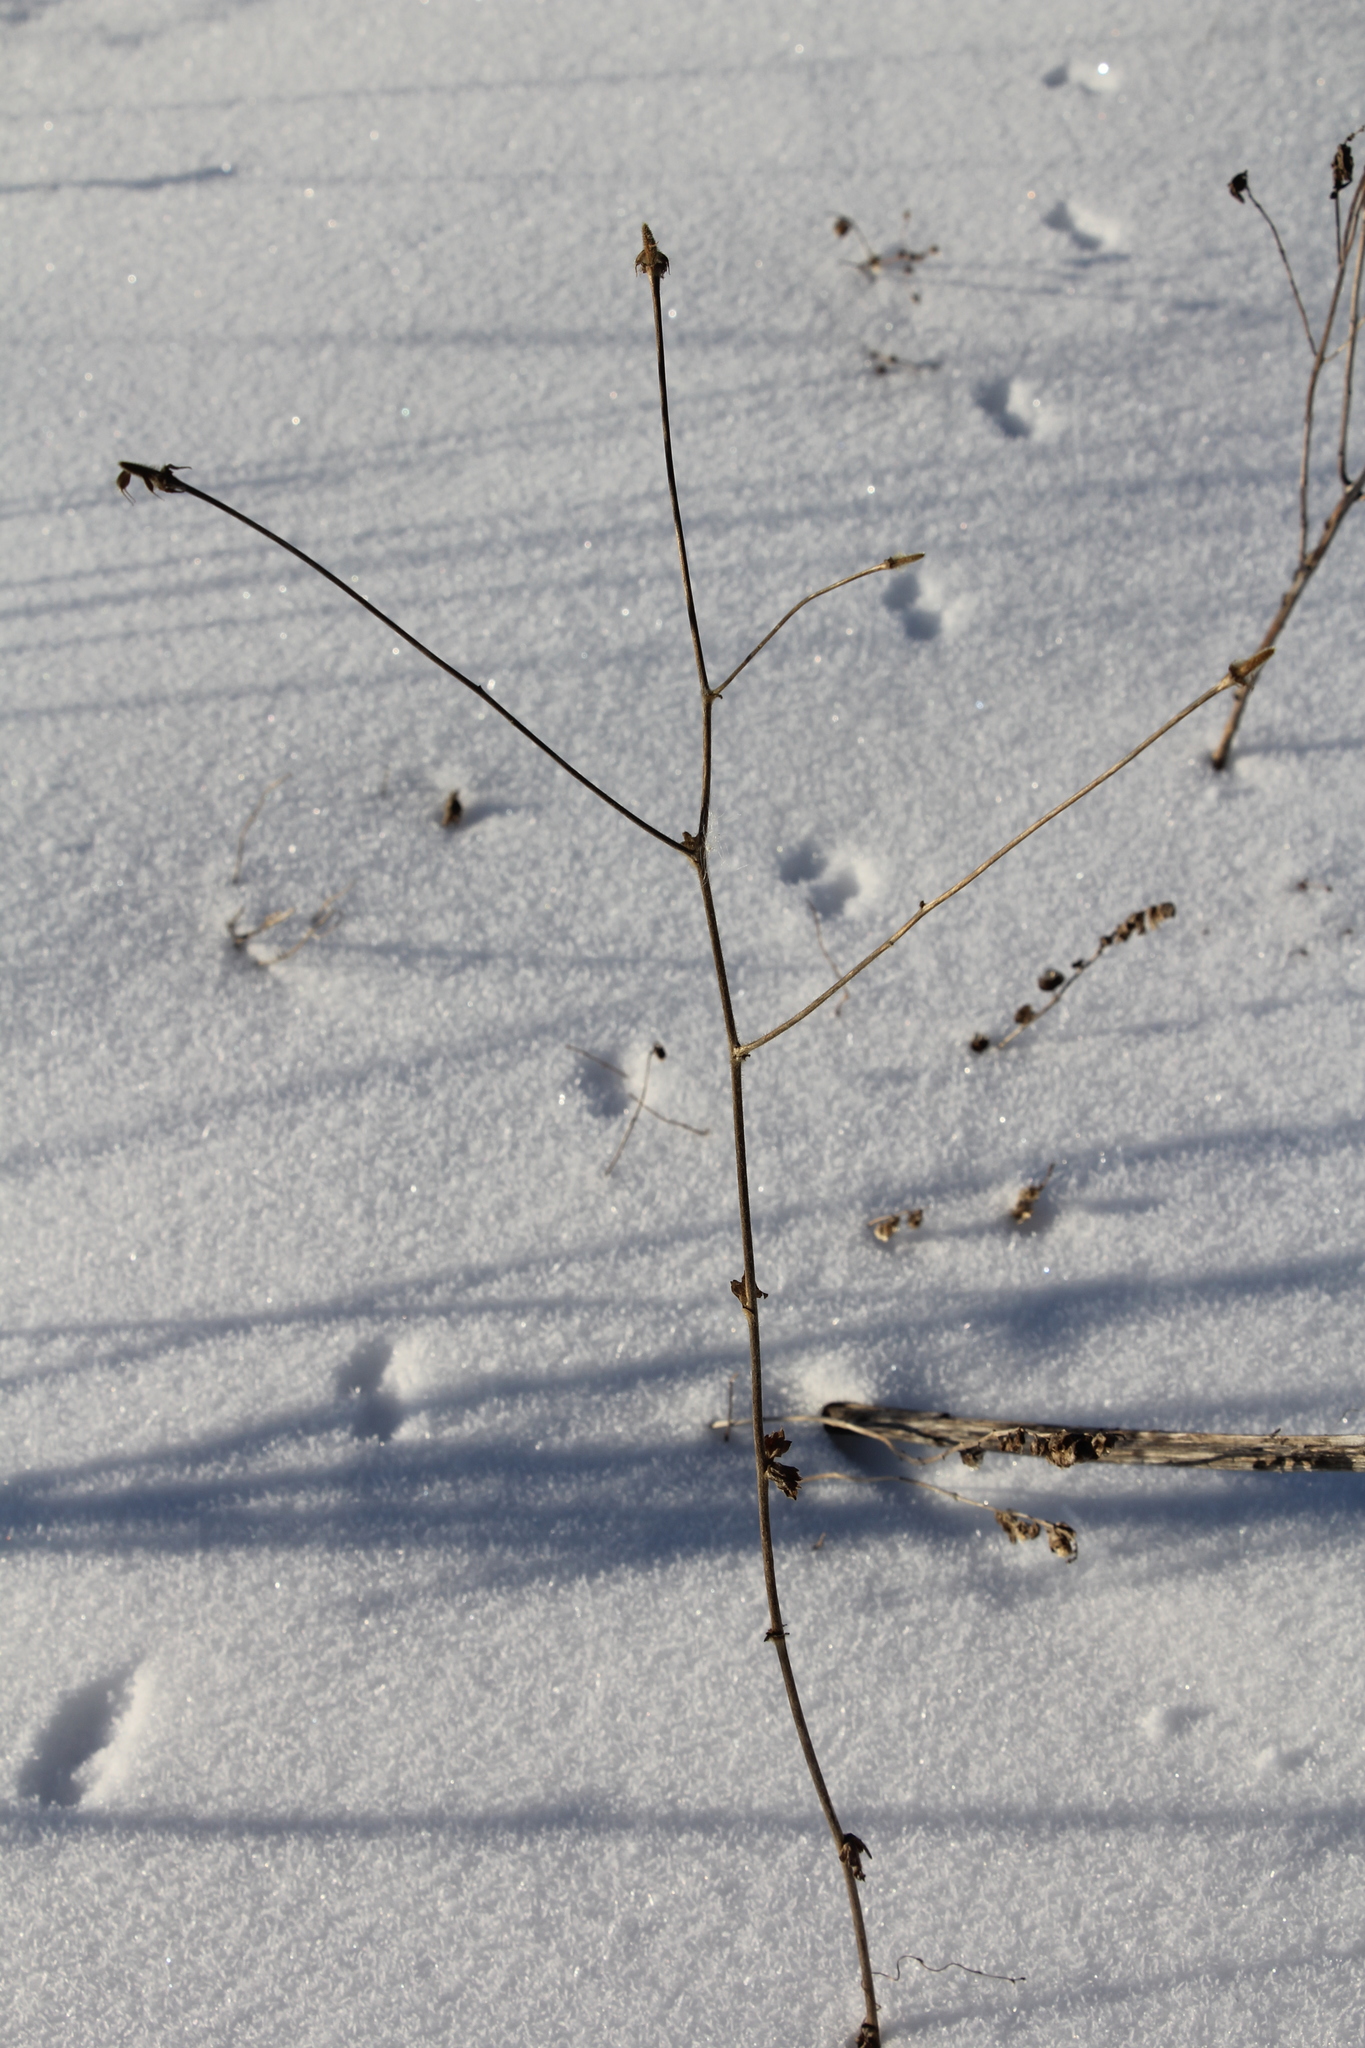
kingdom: Plantae
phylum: Tracheophyta
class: Magnoliopsida
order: Rosales
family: Rosaceae
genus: Geum
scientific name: Geum aleppicum
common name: Yellow avens
